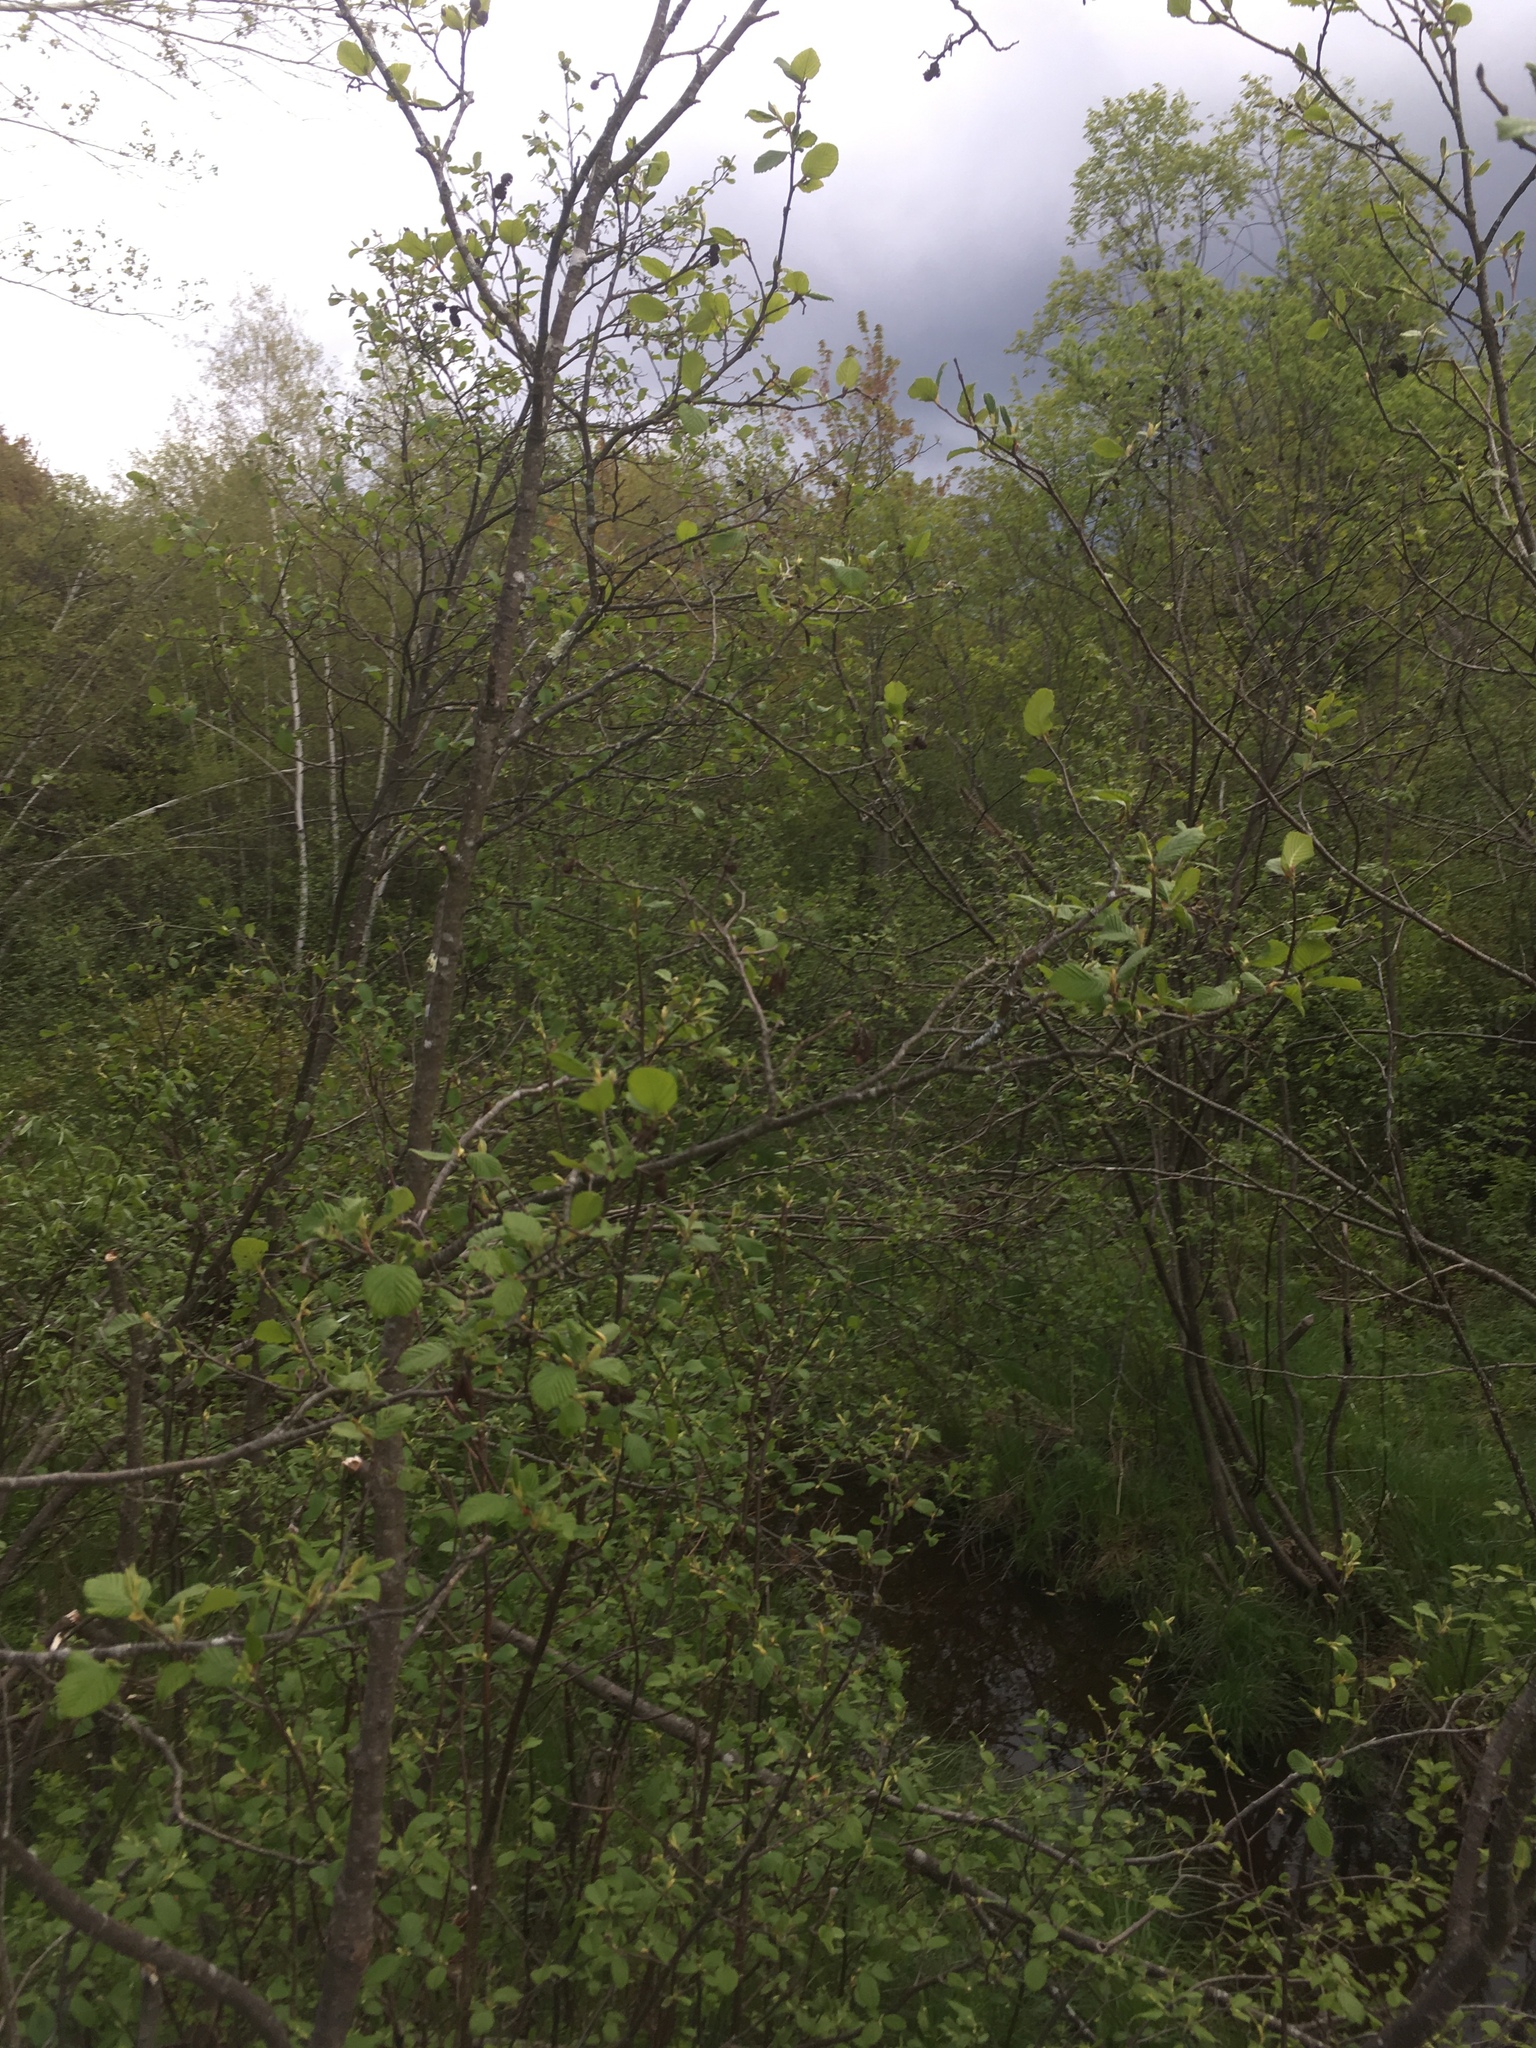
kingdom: Plantae
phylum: Tracheophyta
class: Magnoliopsida
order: Fagales
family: Betulaceae
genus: Alnus
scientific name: Alnus incana
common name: Grey alder
